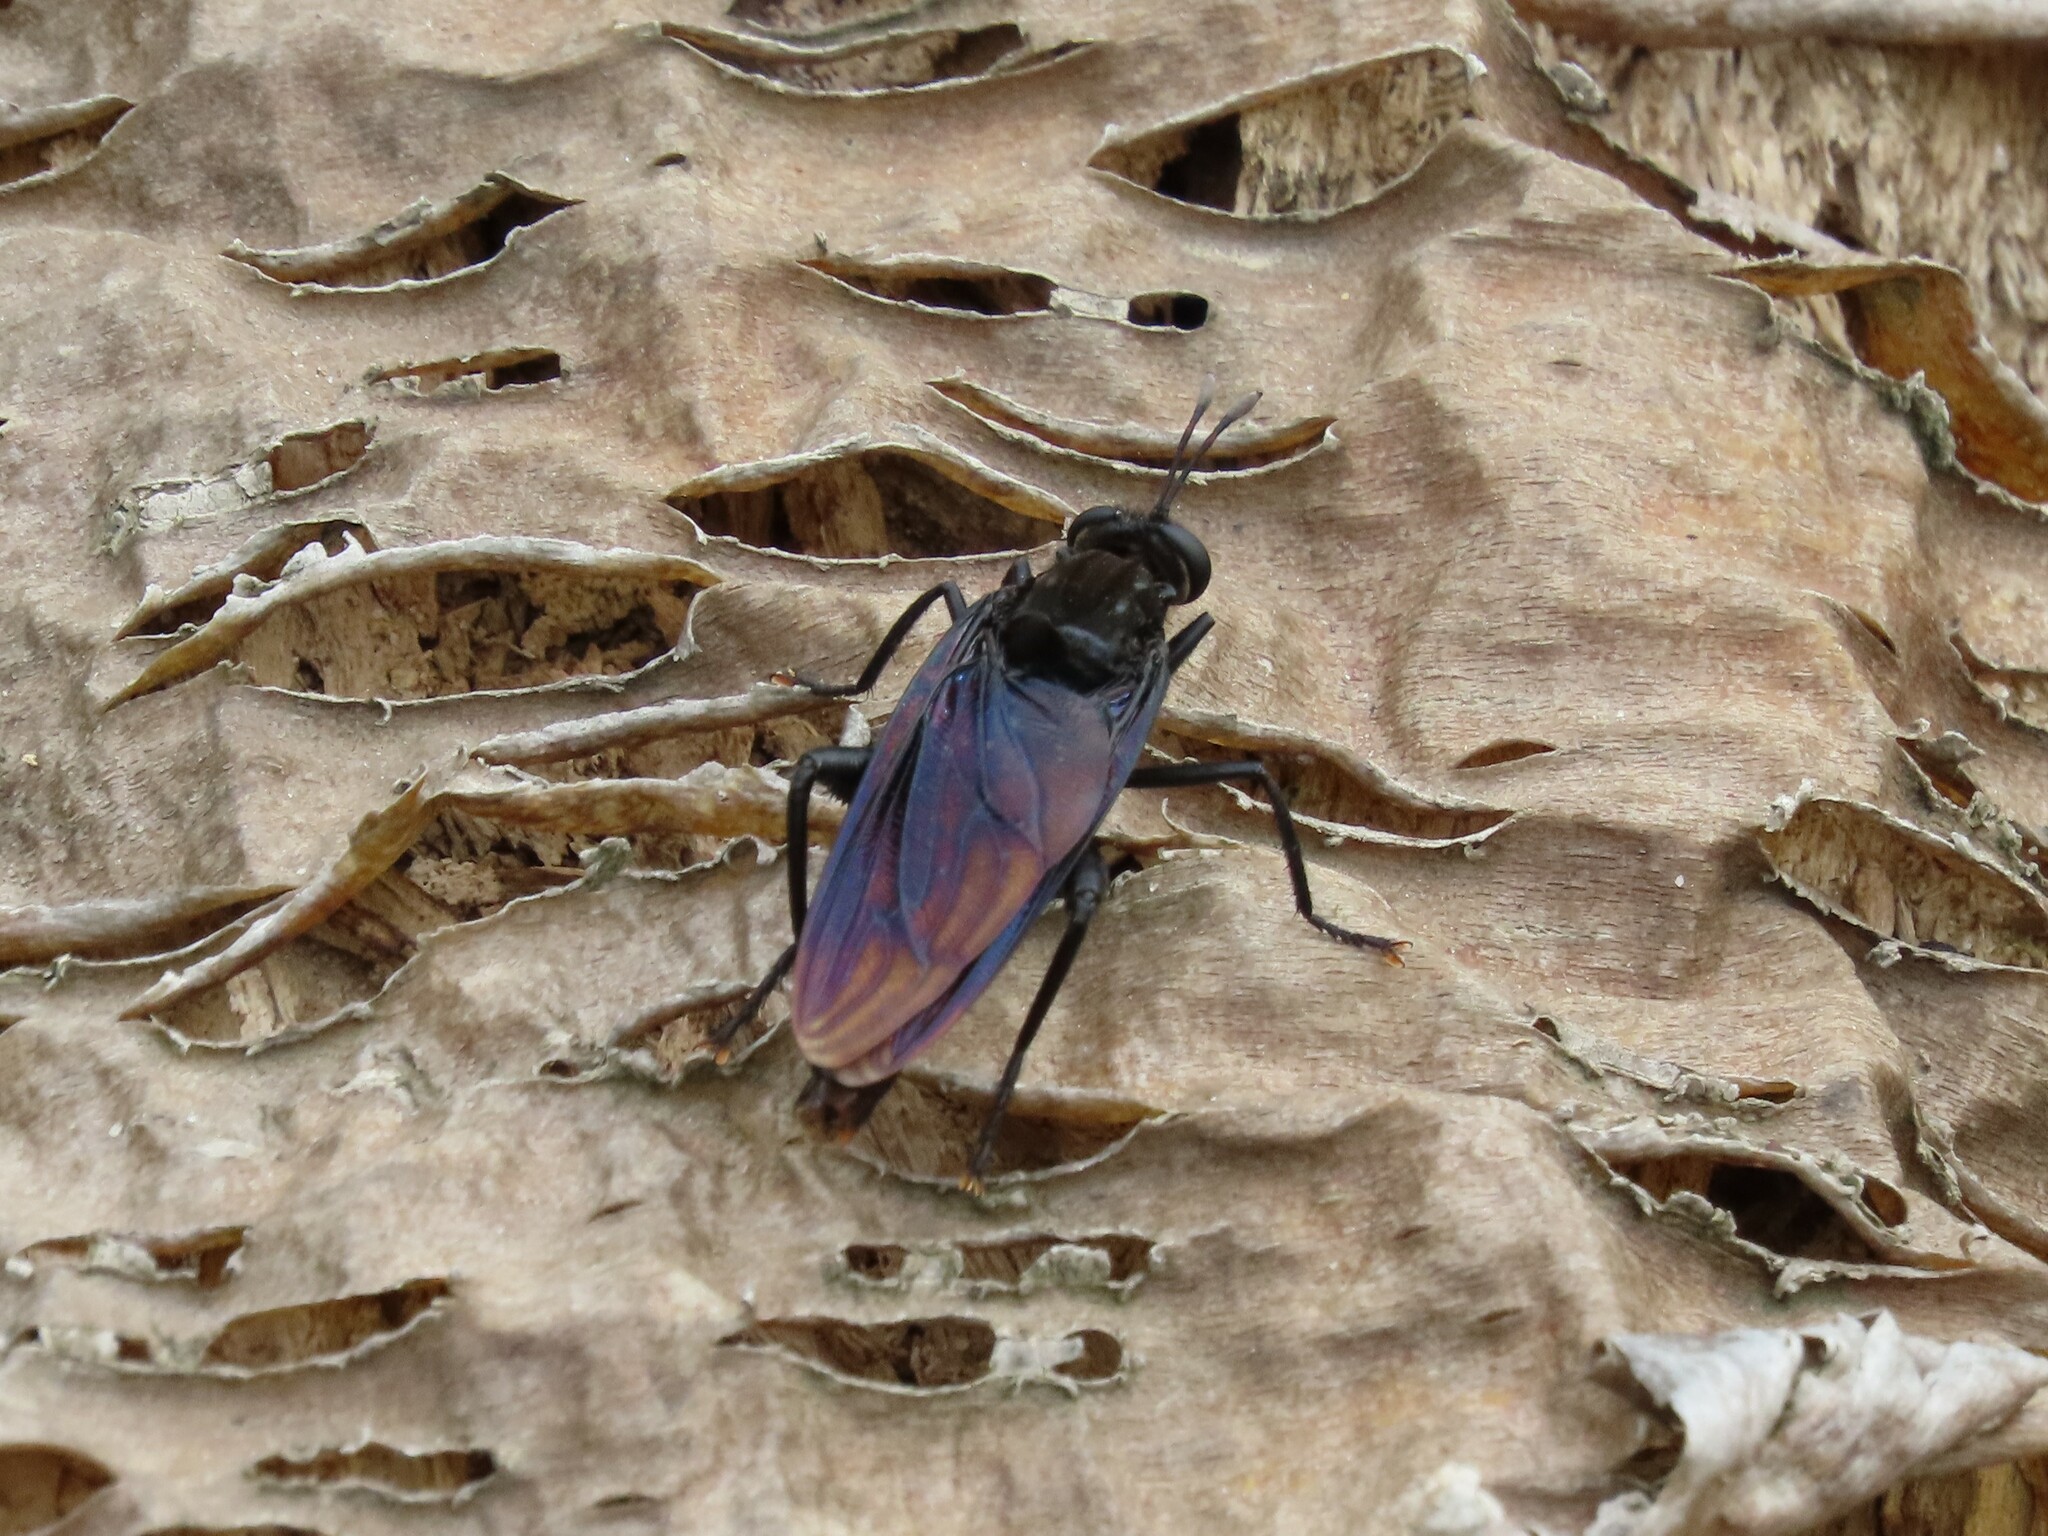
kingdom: Animalia
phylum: Arthropoda
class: Insecta
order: Diptera
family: Mydidae
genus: Mydas
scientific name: Mydas clavatus
